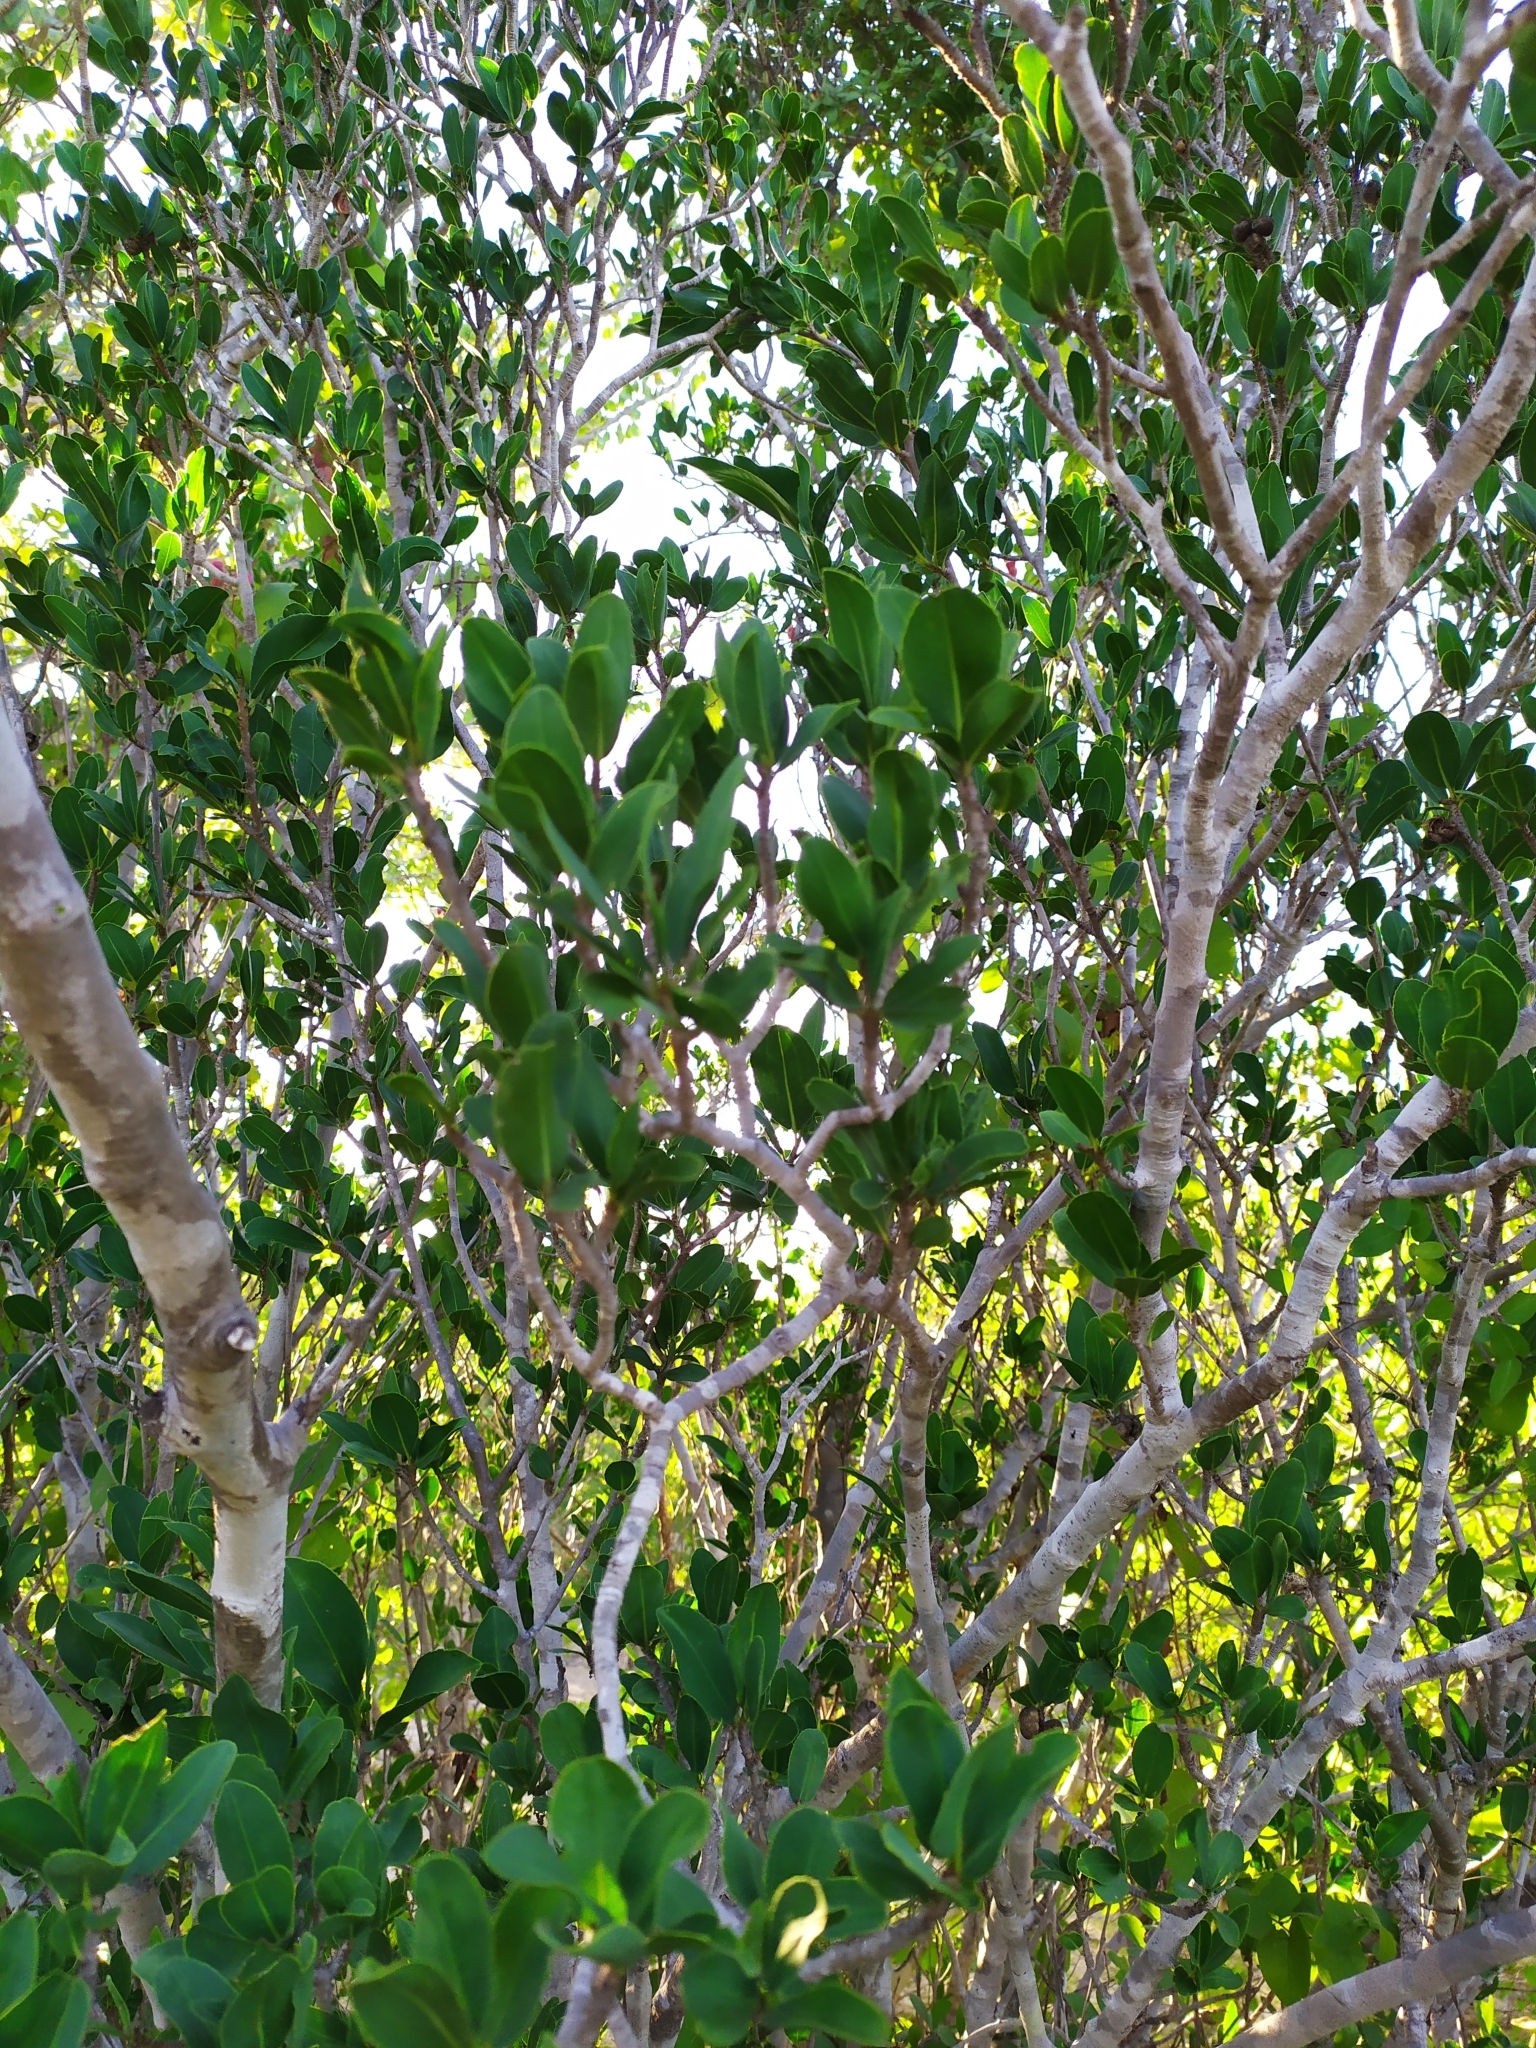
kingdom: Plantae
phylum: Tracheophyta
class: Magnoliopsida
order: Malpighiales
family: Euphorbiaceae
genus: Pleradenophora
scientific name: Pleradenophora bilocularis
